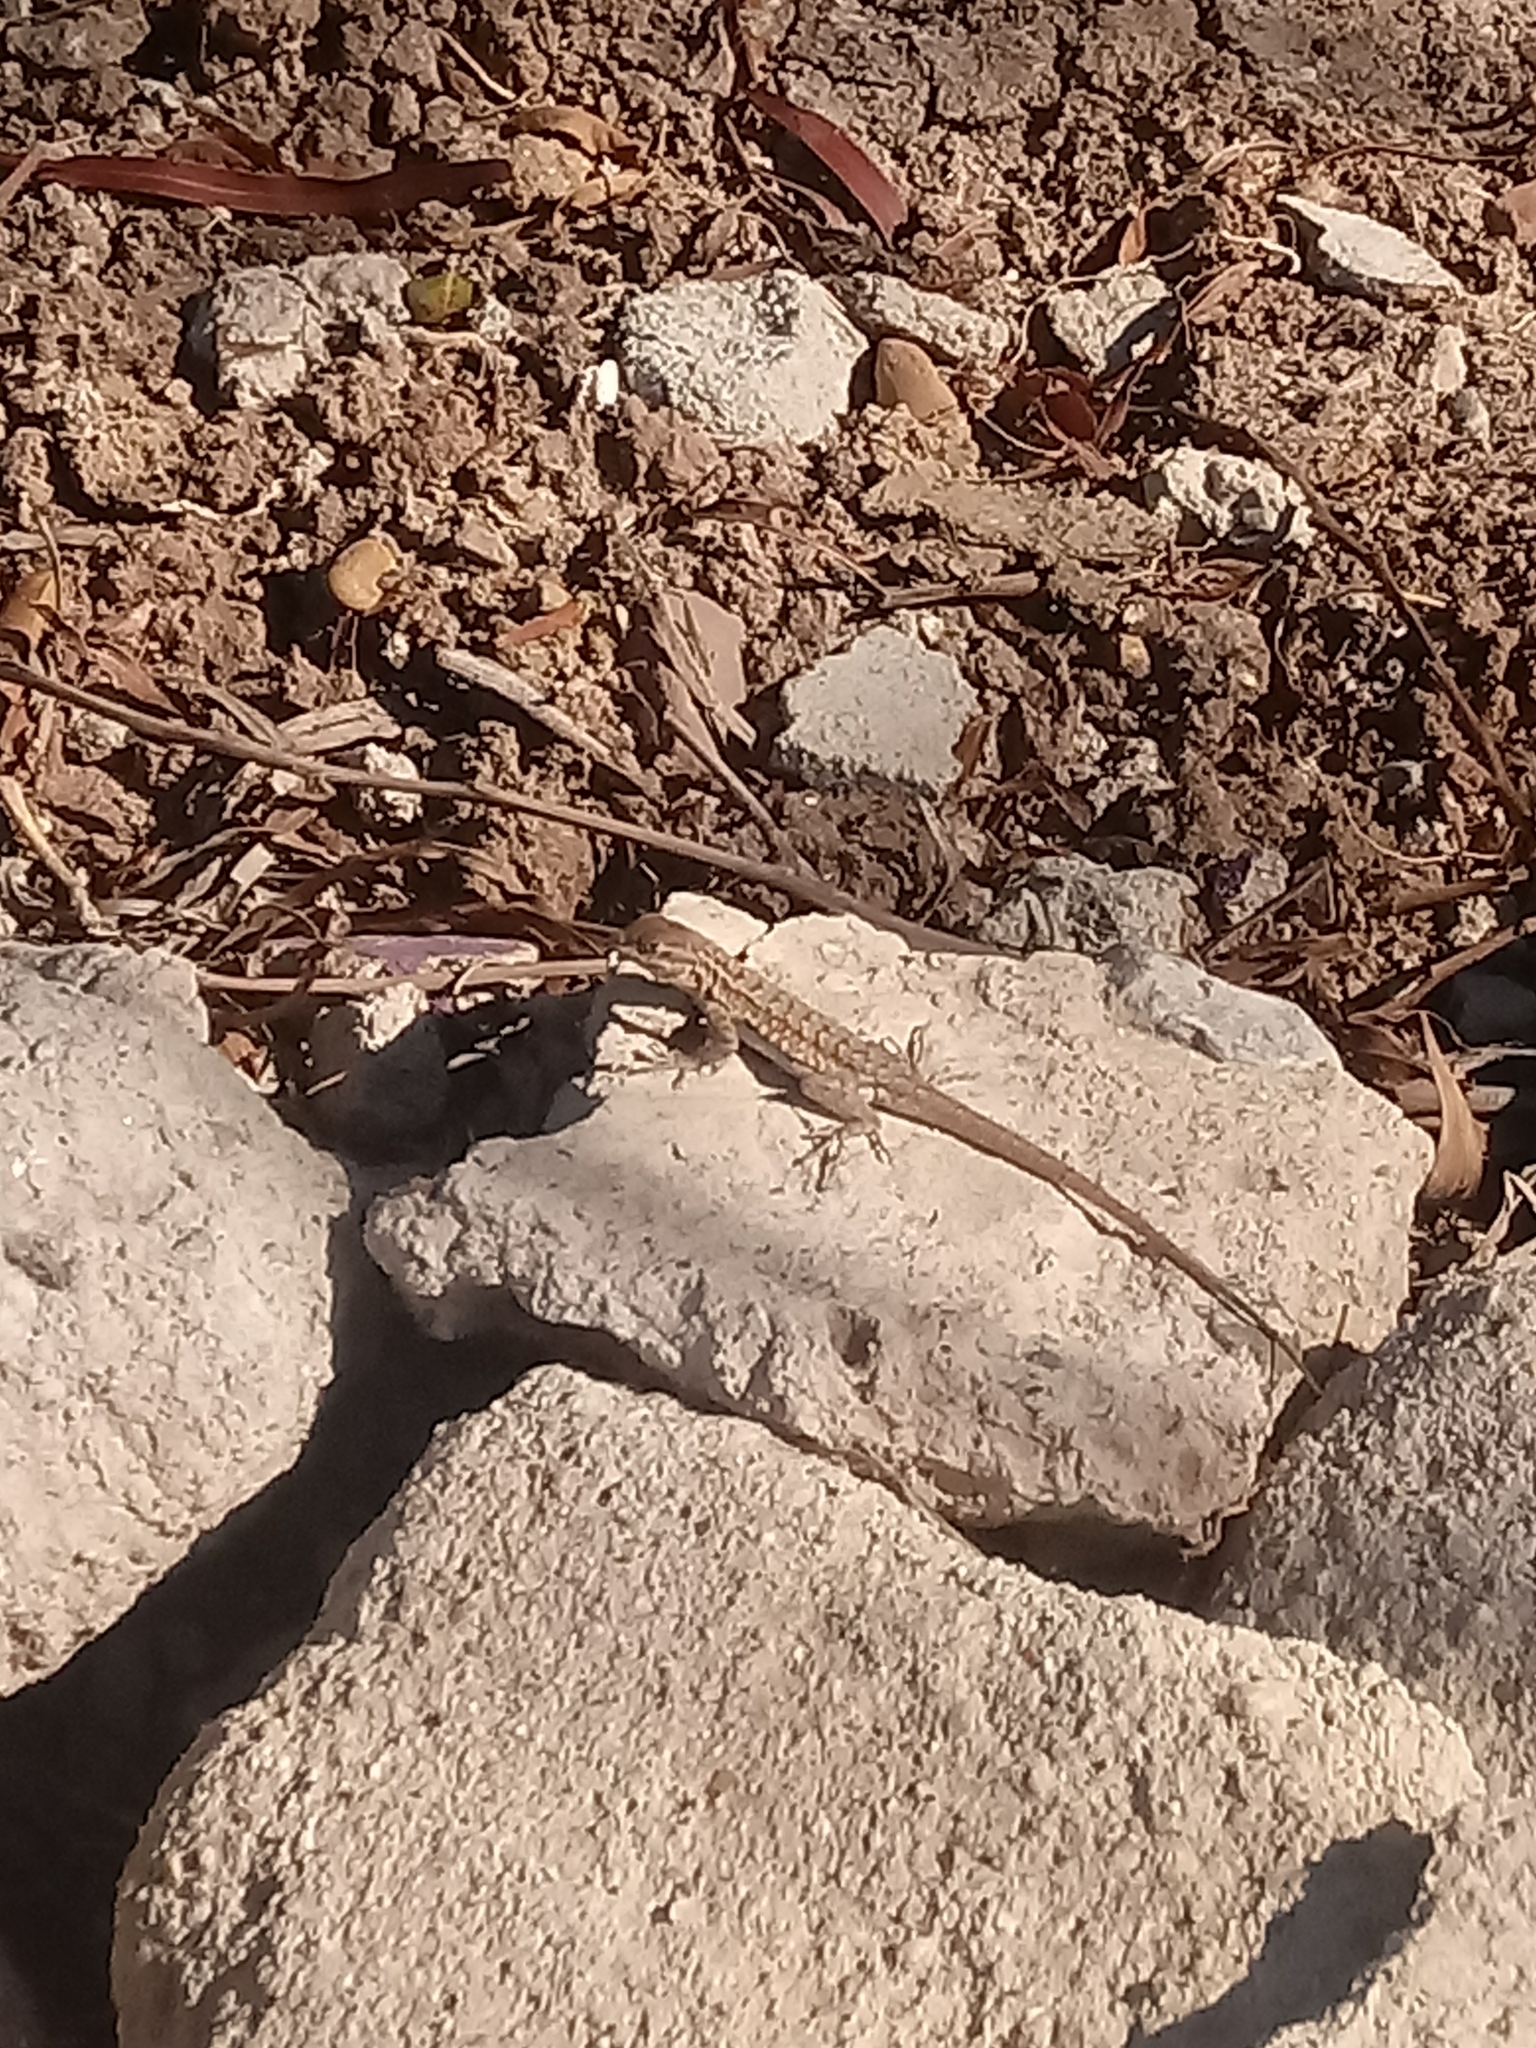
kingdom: Animalia
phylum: Chordata
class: Squamata
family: Phrynosomatidae
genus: Sceloporus
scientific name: Sceloporus occidentalis
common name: Western fence lizard
